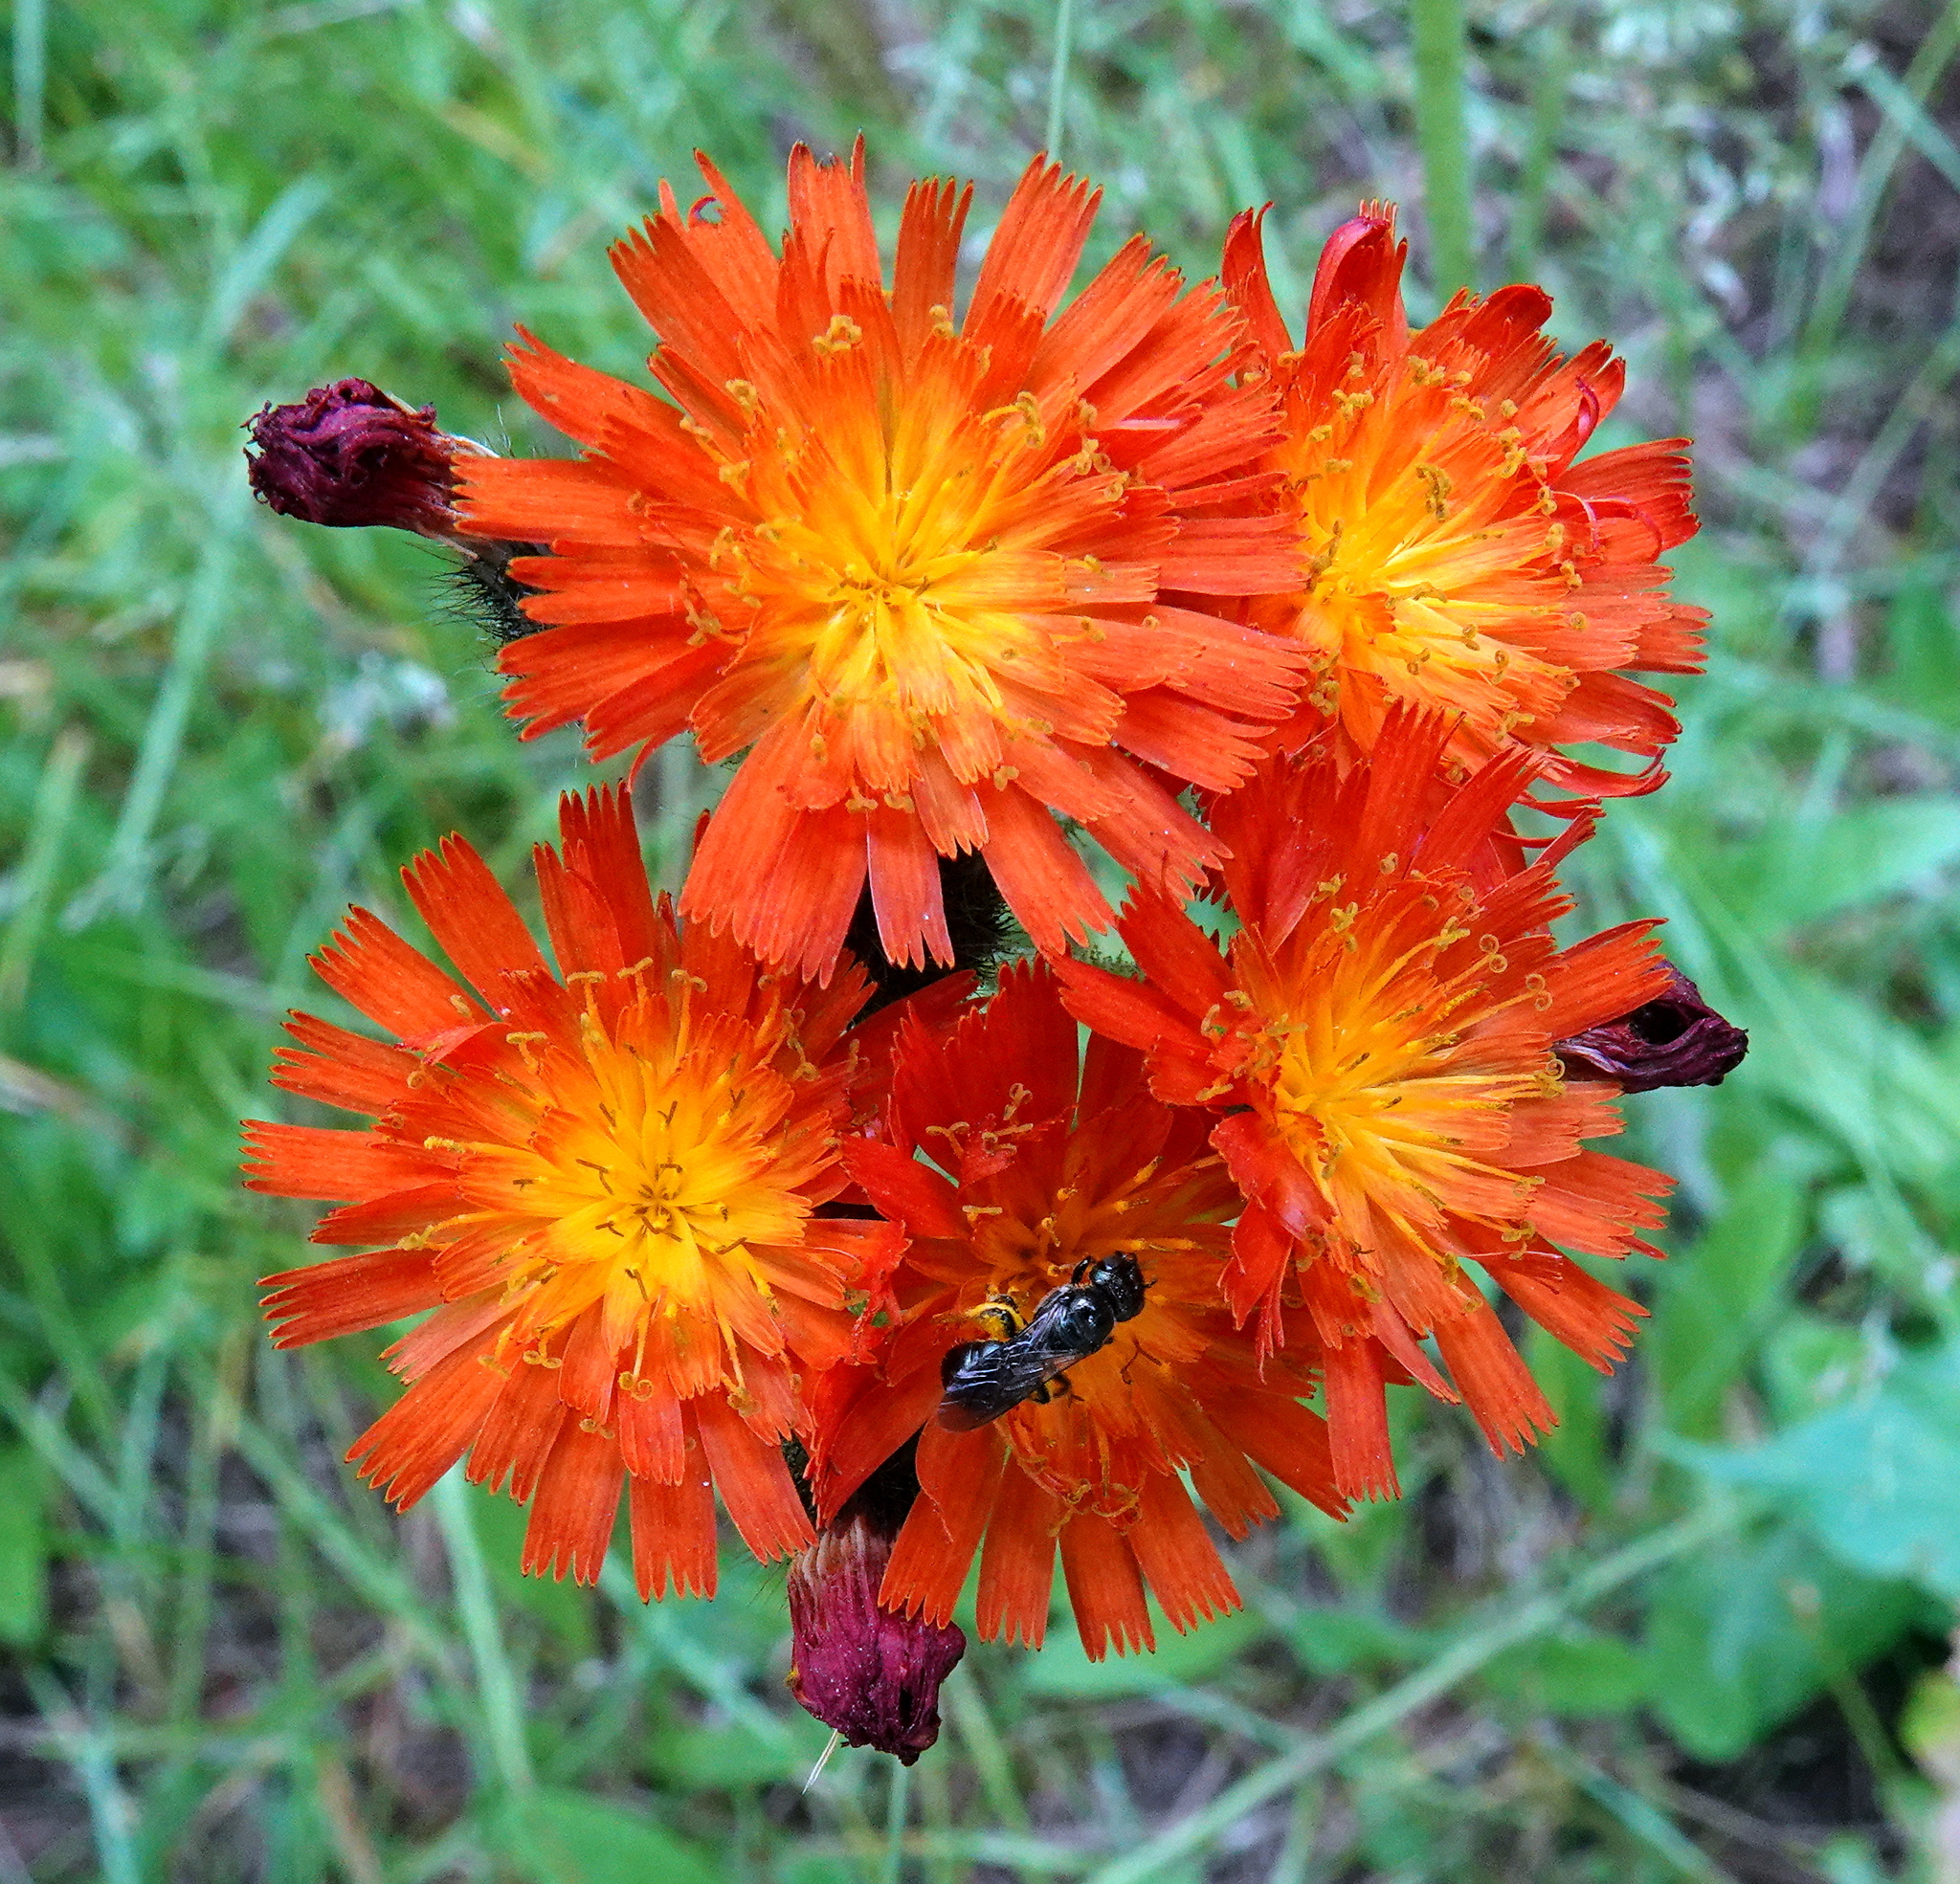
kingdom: Plantae
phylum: Tracheophyta
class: Magnoliopsida
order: Asterales
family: Asteraceae
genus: Pilosella
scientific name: Pilosella aurantiaca
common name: Fox-and-cubs
